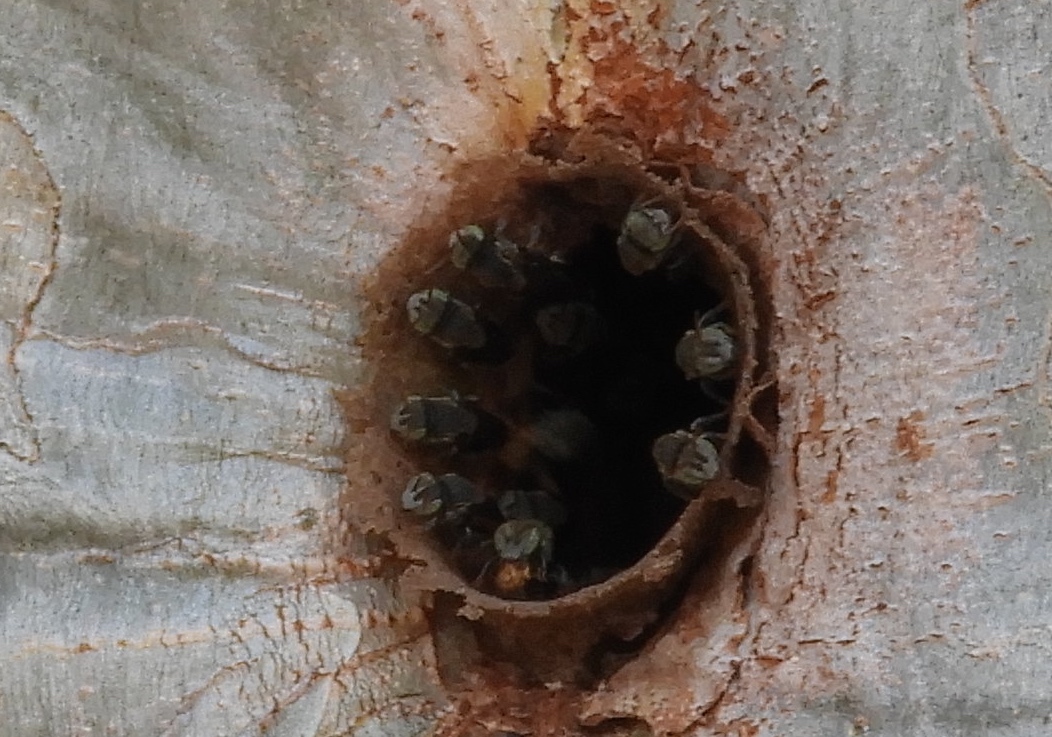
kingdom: Animalia
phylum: Arthropoda
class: Insecta
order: Hymenoptera
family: Apidae
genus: Nannotrigona
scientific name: Nannotrigona perilampoides
